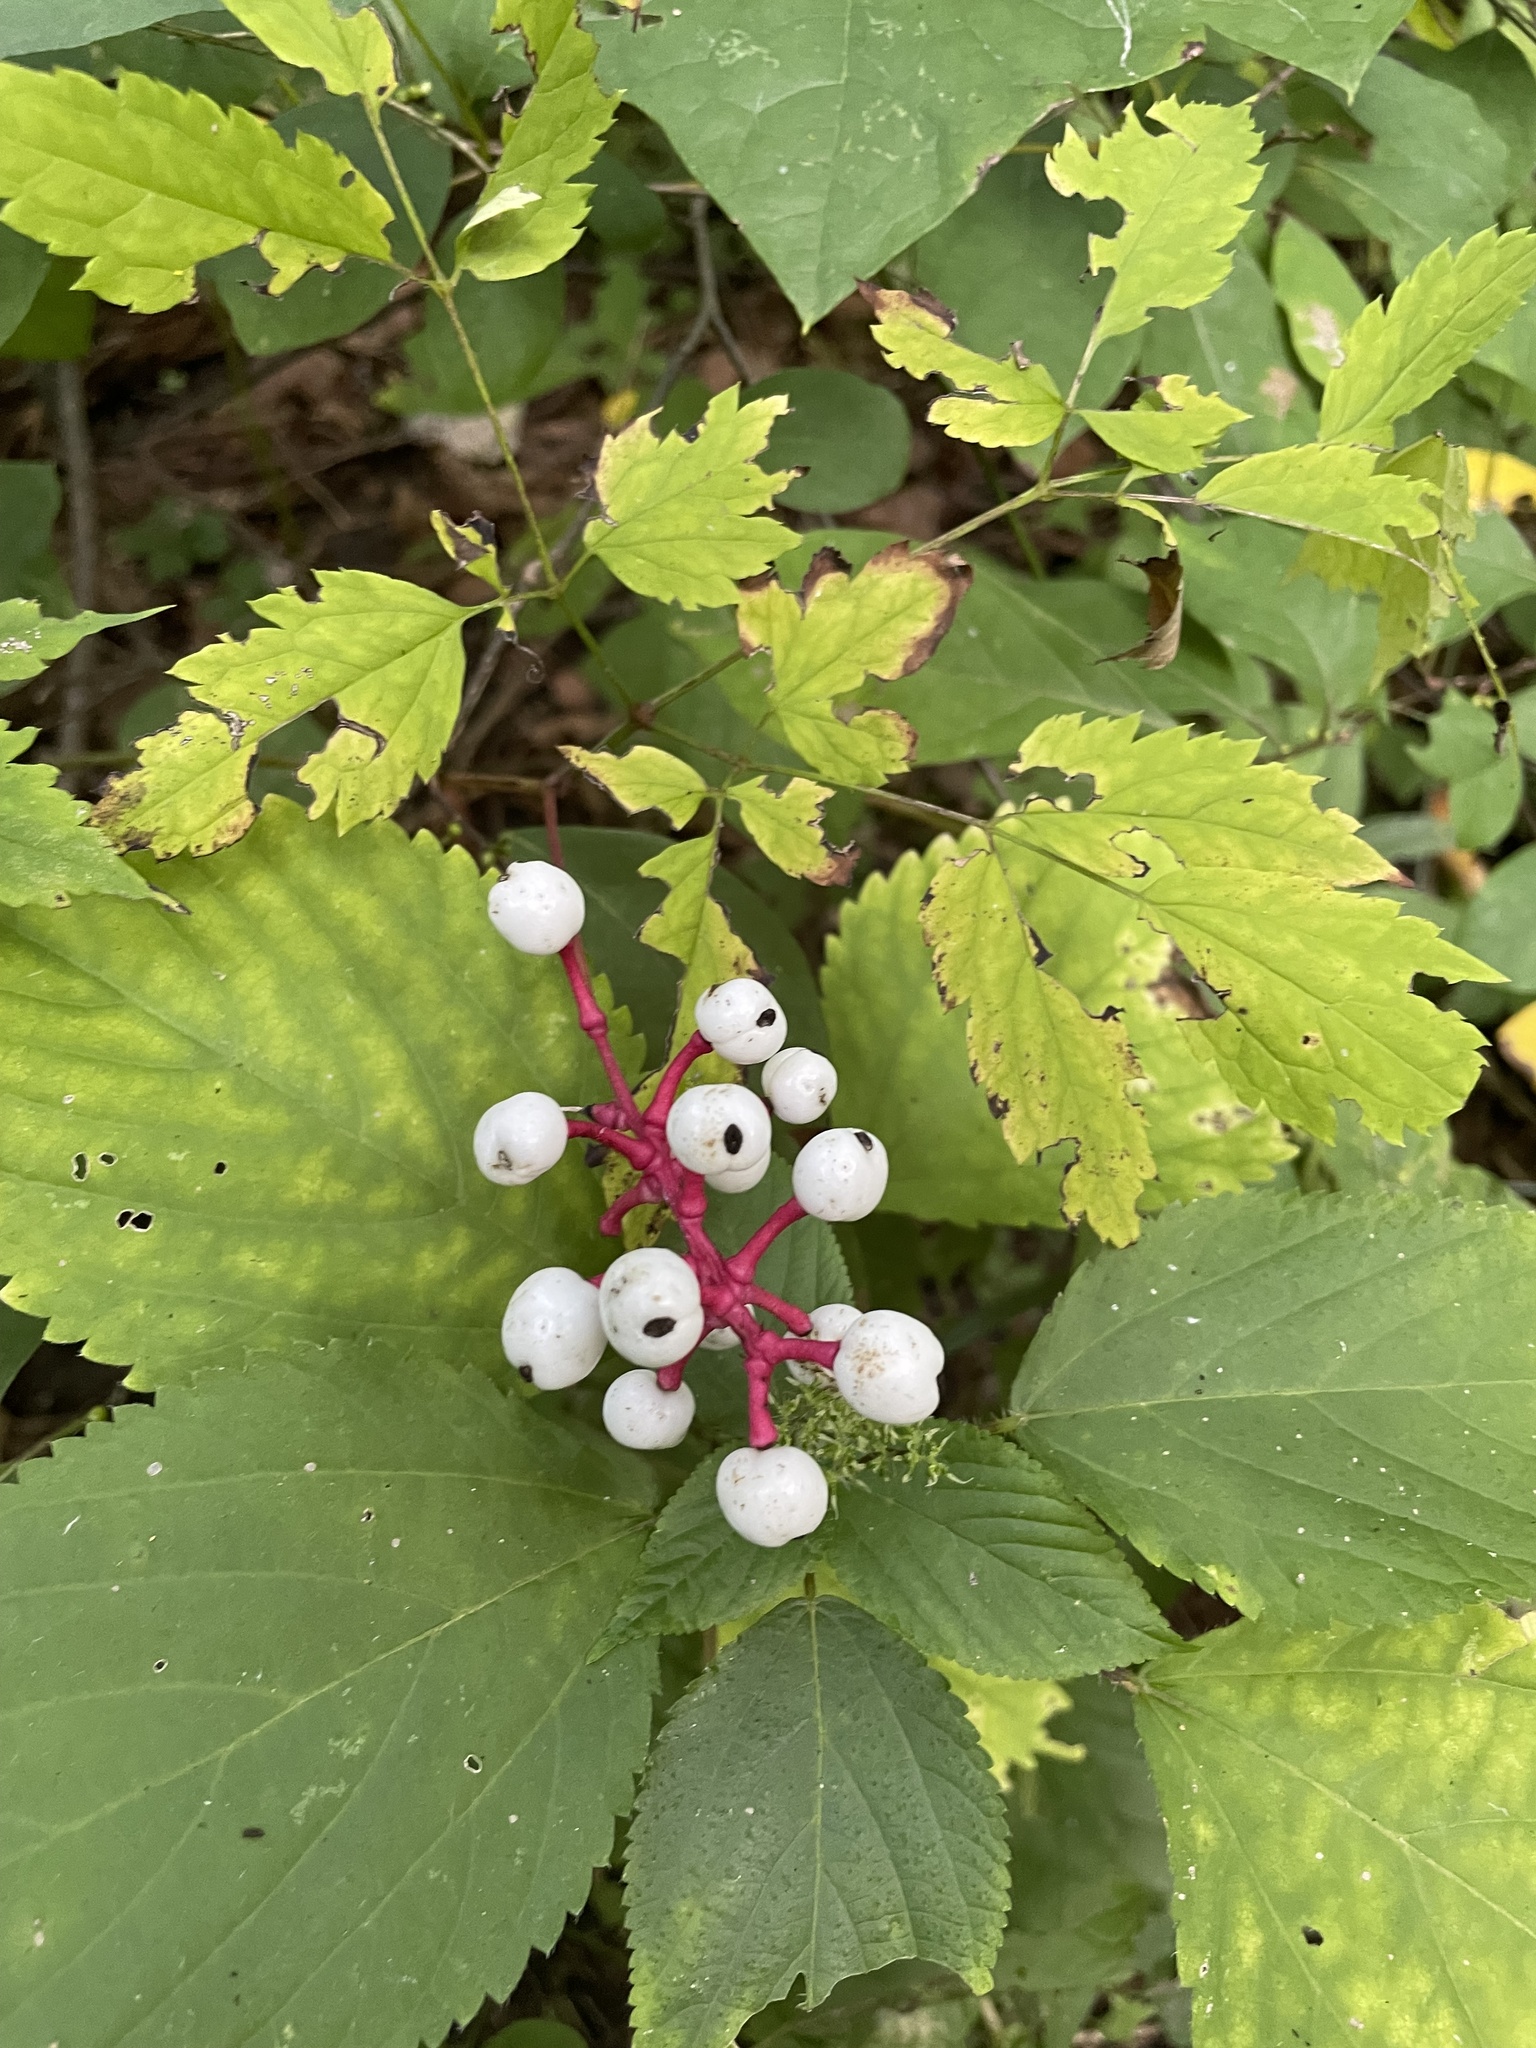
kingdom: Plantae
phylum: Tracheophyta
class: Magnoliopsida
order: Ranunculales
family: Ranunculaceae
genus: Actaea
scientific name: Actaea pachypoda
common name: Doll's-eyes
